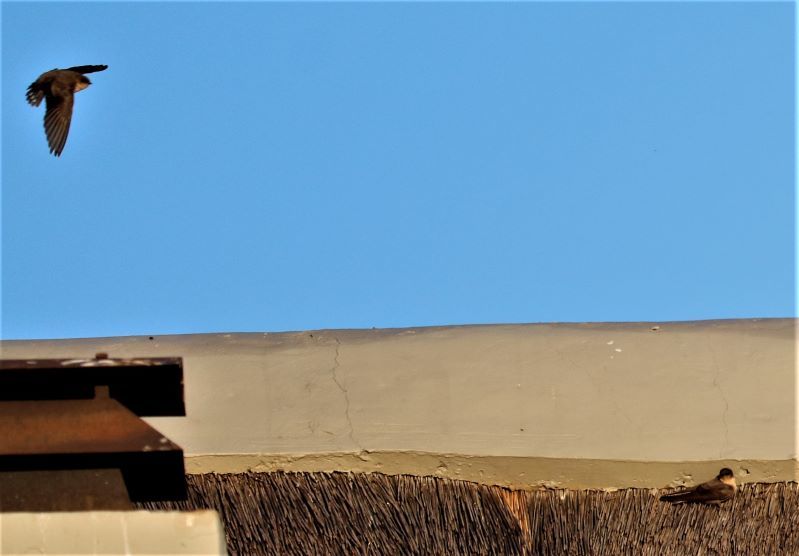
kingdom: Animalia
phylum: Chordata
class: Aves
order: Passeriformes
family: Hirundinidae
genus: Ptyonoprogne
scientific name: Ptyonoprogne fuligula
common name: Rock martin
